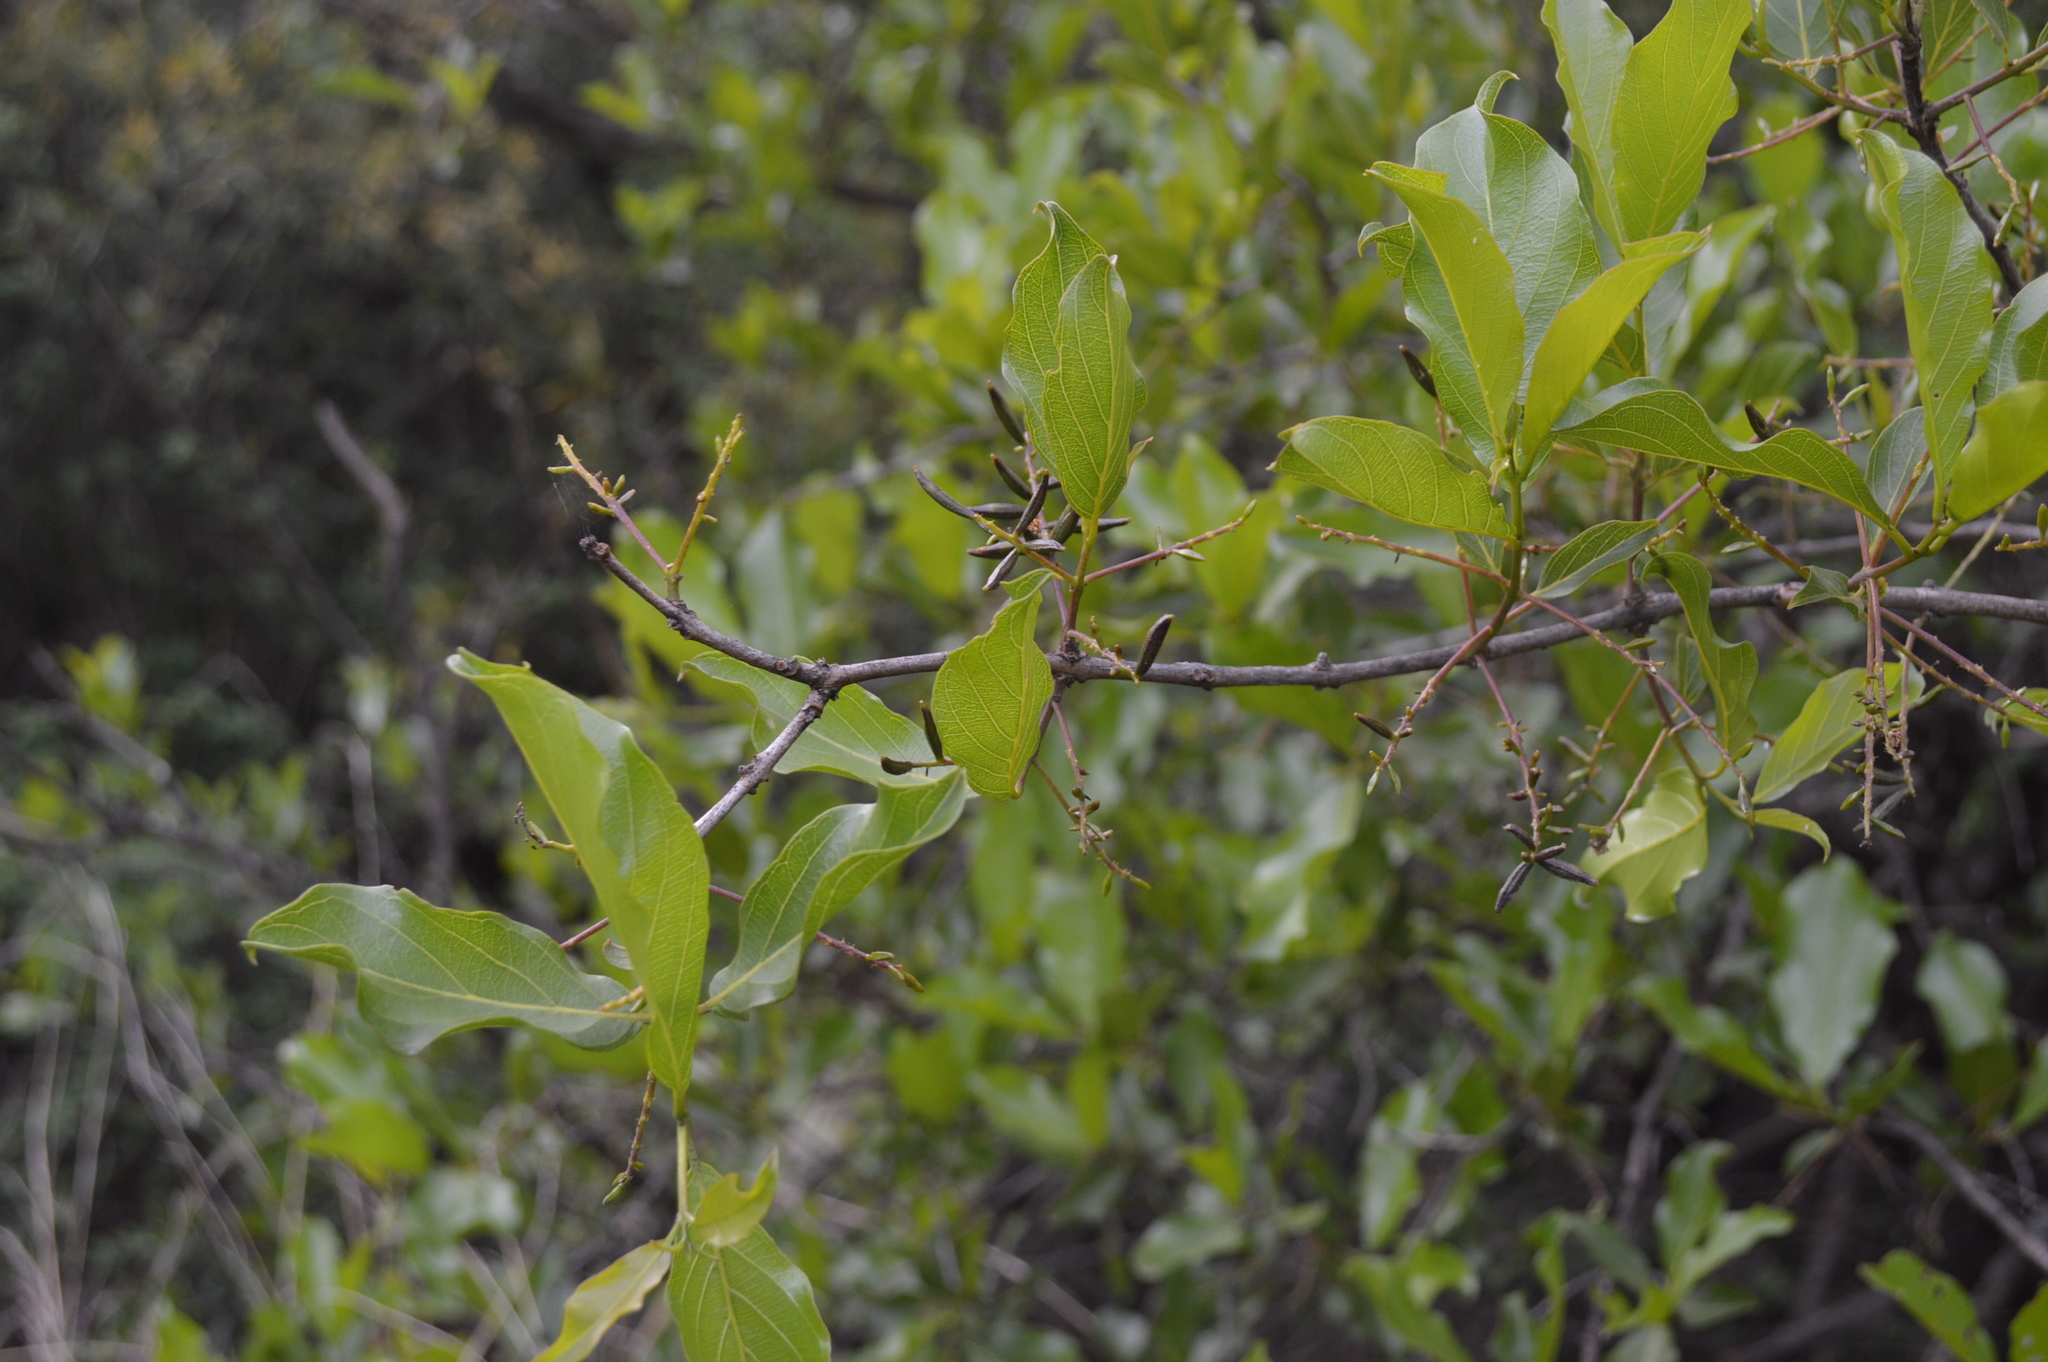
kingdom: Plantae
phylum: Tracheophyta
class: Magnoliopsida
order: Myrtales
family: Combretaceae
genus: Combretum
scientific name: Combretum apiculatum
